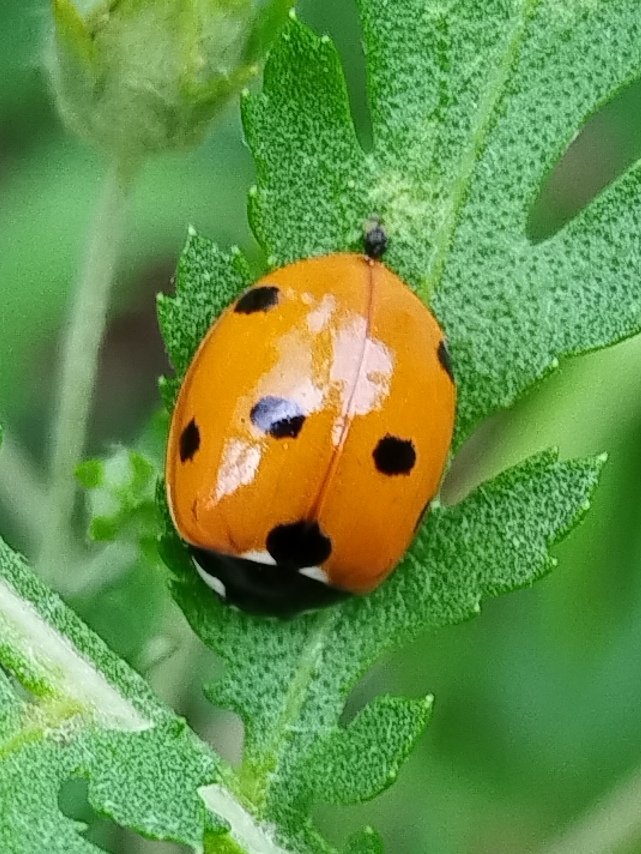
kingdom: Animalia
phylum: Arthropoda
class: Insecta
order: Coleoptera
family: Coccinellidae
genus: Coccinella
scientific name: Coccinella septempunctata
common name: Sevenspotted lady beetle
